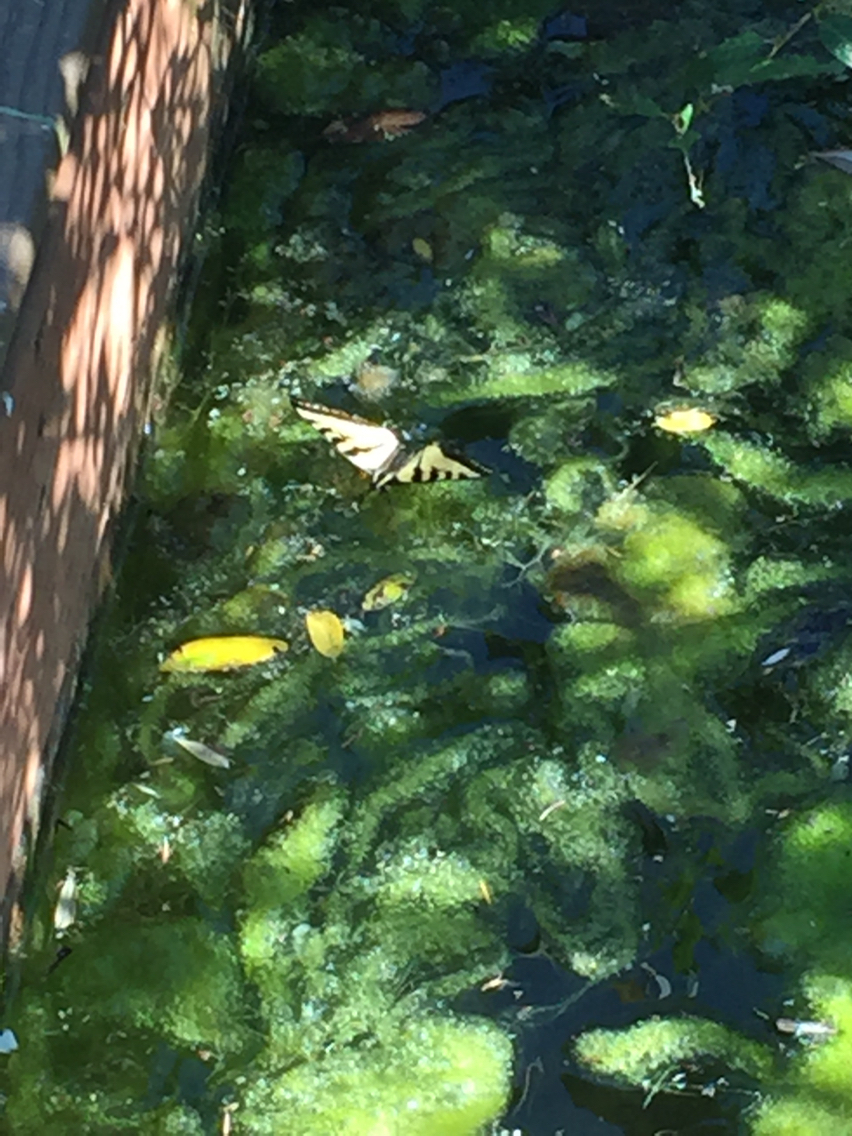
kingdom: Animalia
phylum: Arthropoda
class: Insecta
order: Lepidoptera
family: Papilionidae
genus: Papilio
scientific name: Papilio rutulus
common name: Western tiger swallowtail
